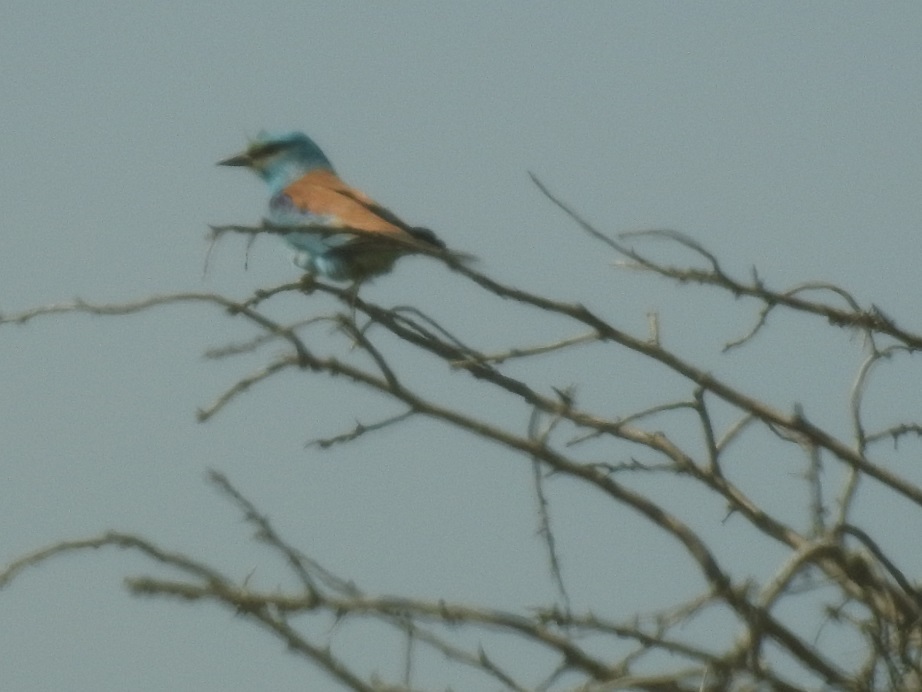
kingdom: Animalia
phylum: Chordata
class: Aves
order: Coraciiformes
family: Coraciidae
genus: Coracias
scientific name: Coracias garrulus
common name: European roller
